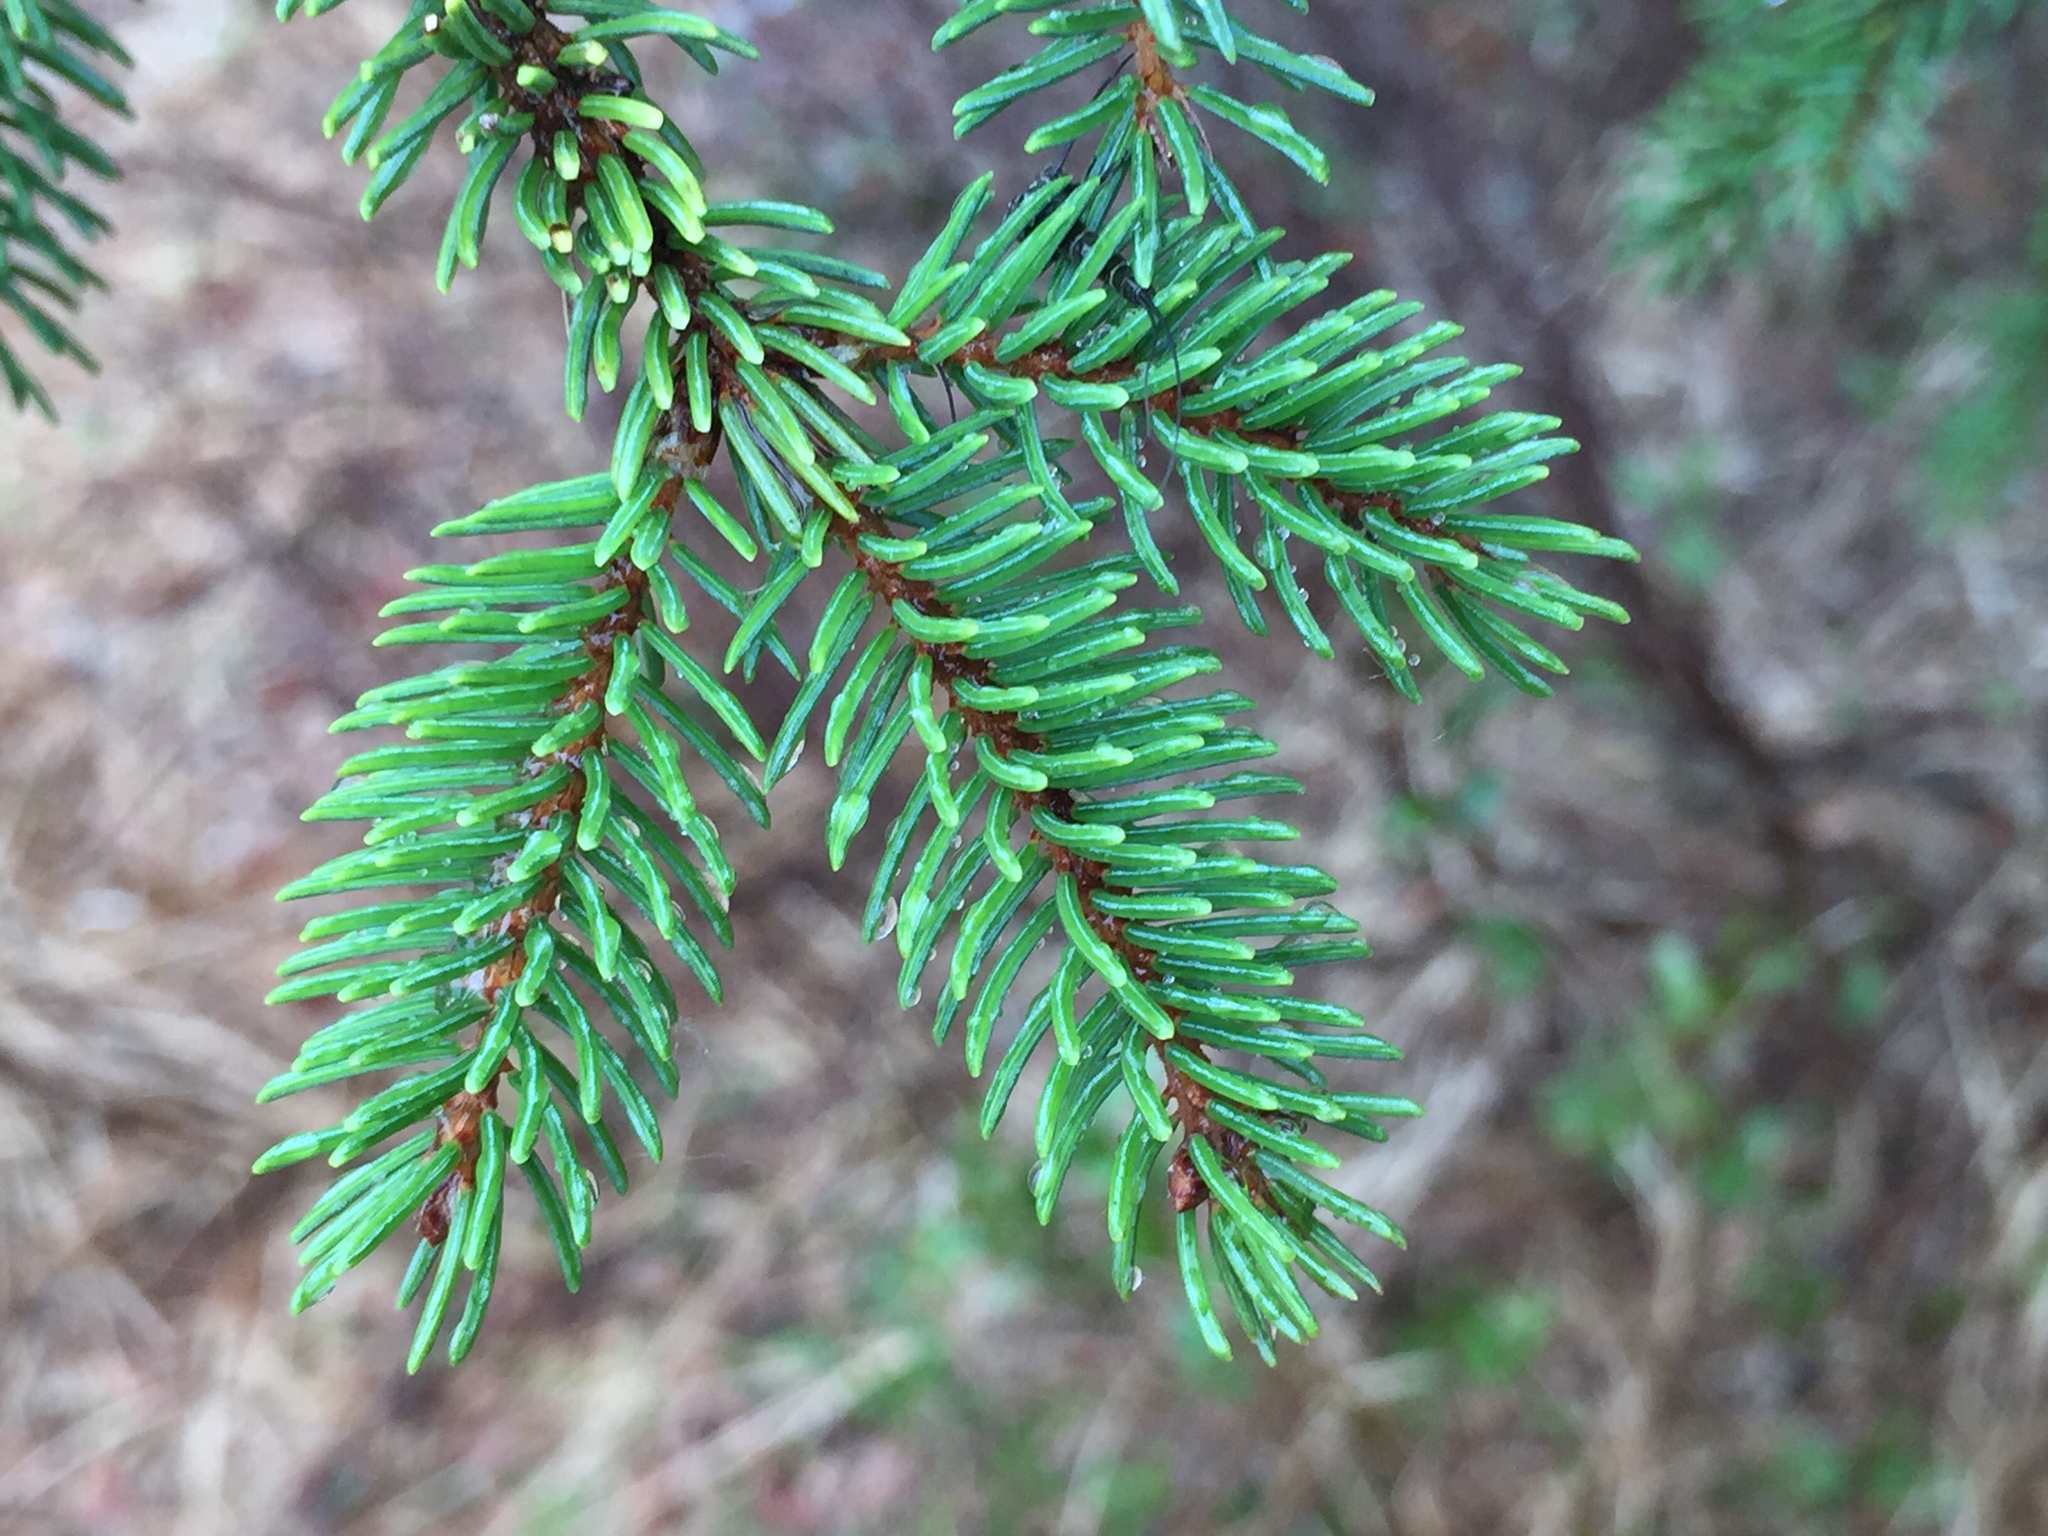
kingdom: Plantae
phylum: Tracheophyta
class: Pinopsida
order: Pinales
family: Pinaceae
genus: Picea
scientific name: Picea mariana
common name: Black spruce
